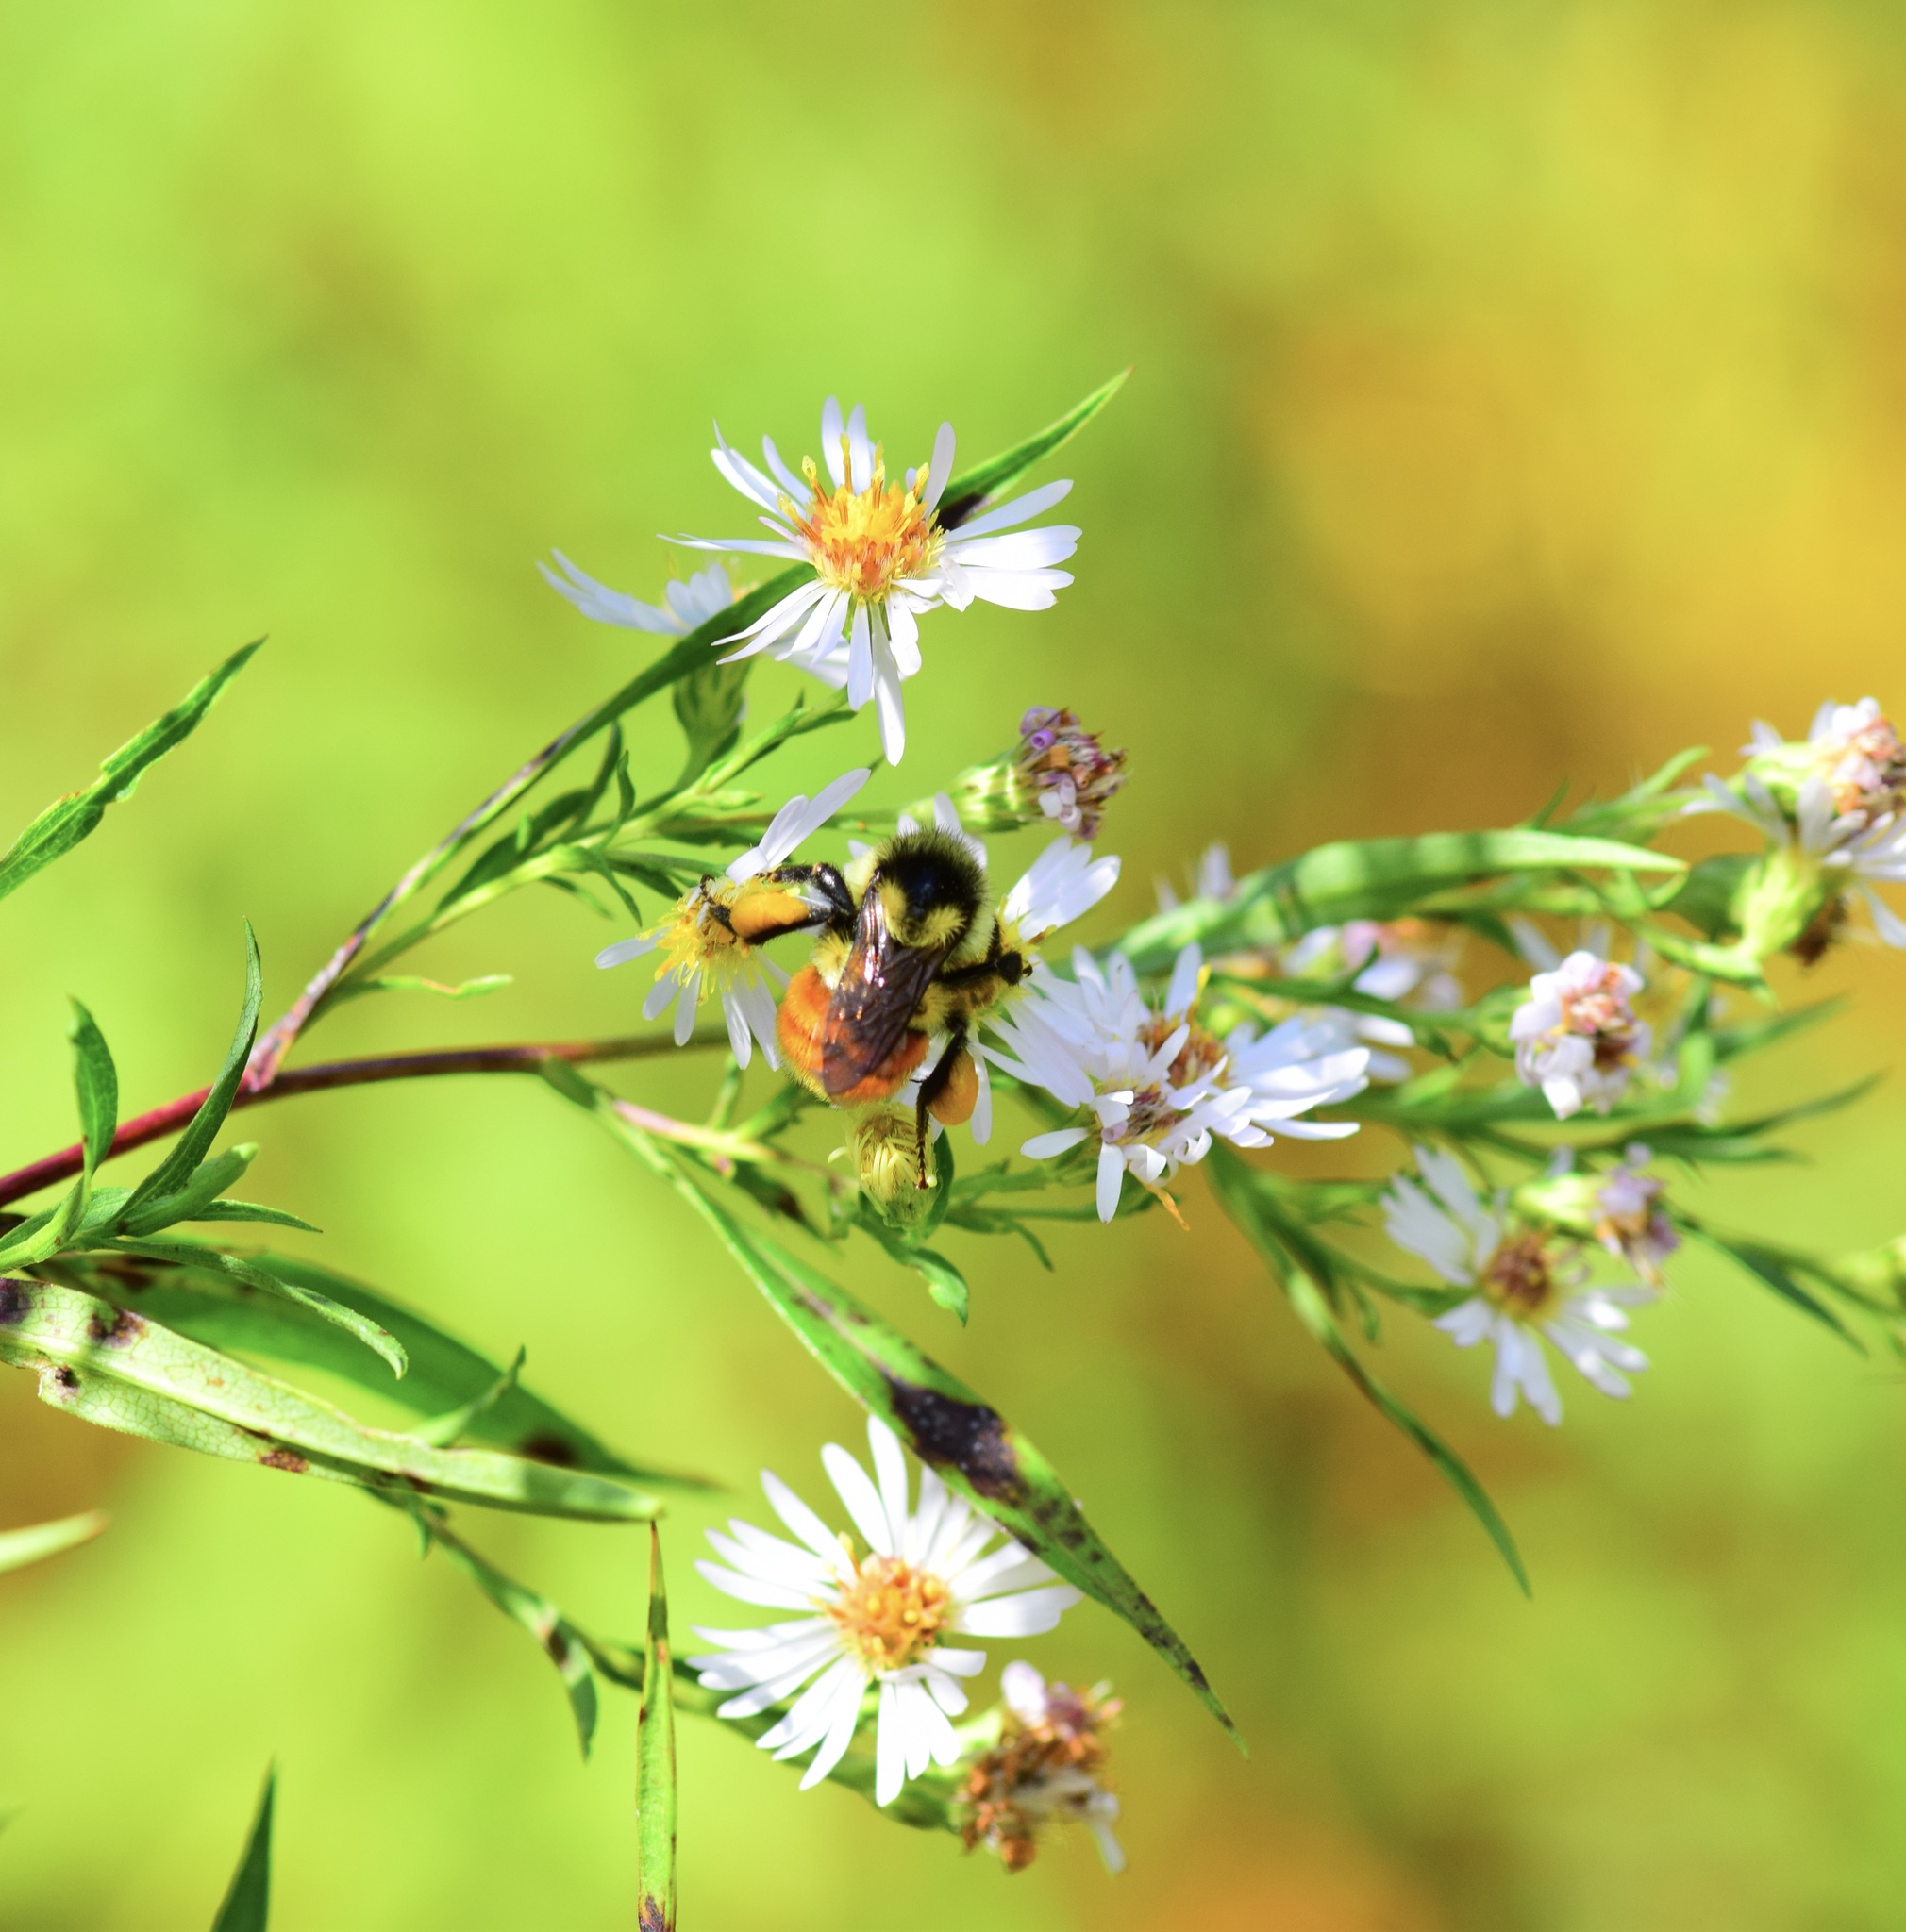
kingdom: Animalia
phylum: Arthropoda
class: Insecta
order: Hymenoptera
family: Apidae
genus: Bombus
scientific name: Bombus ternarius
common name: Tri-colored bumble bee
